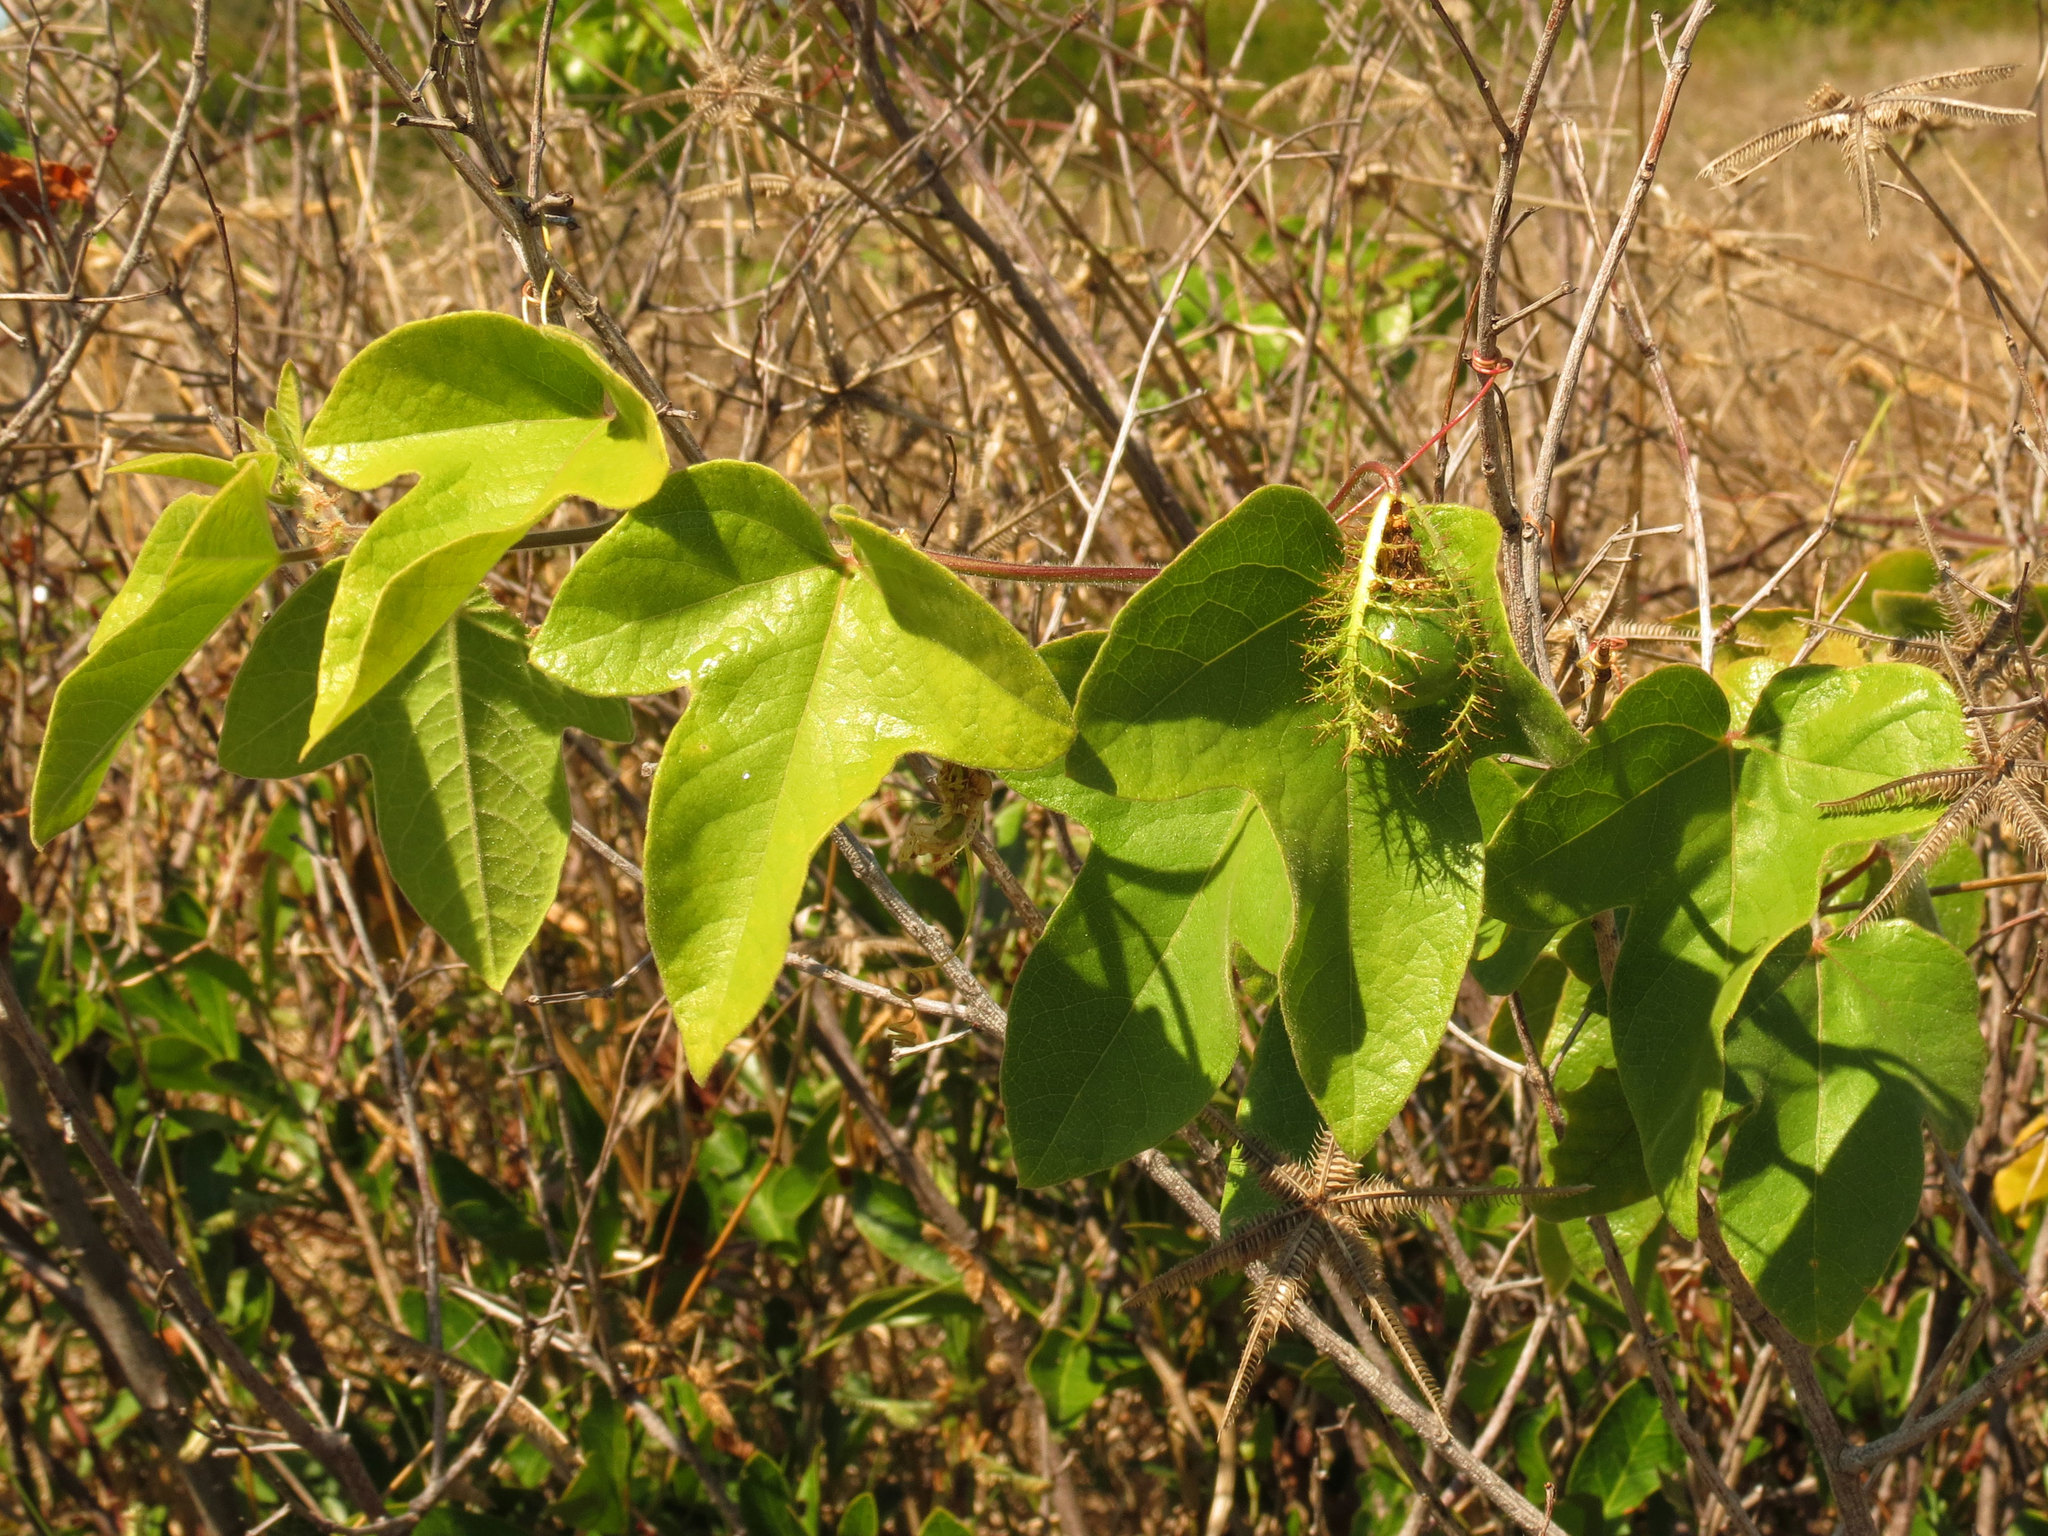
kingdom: Plantae
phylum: Tracheophyta
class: Magnoliopsida
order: Malpighiales
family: Passifloraceae
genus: Passiflora
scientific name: Passiflora ciliata
